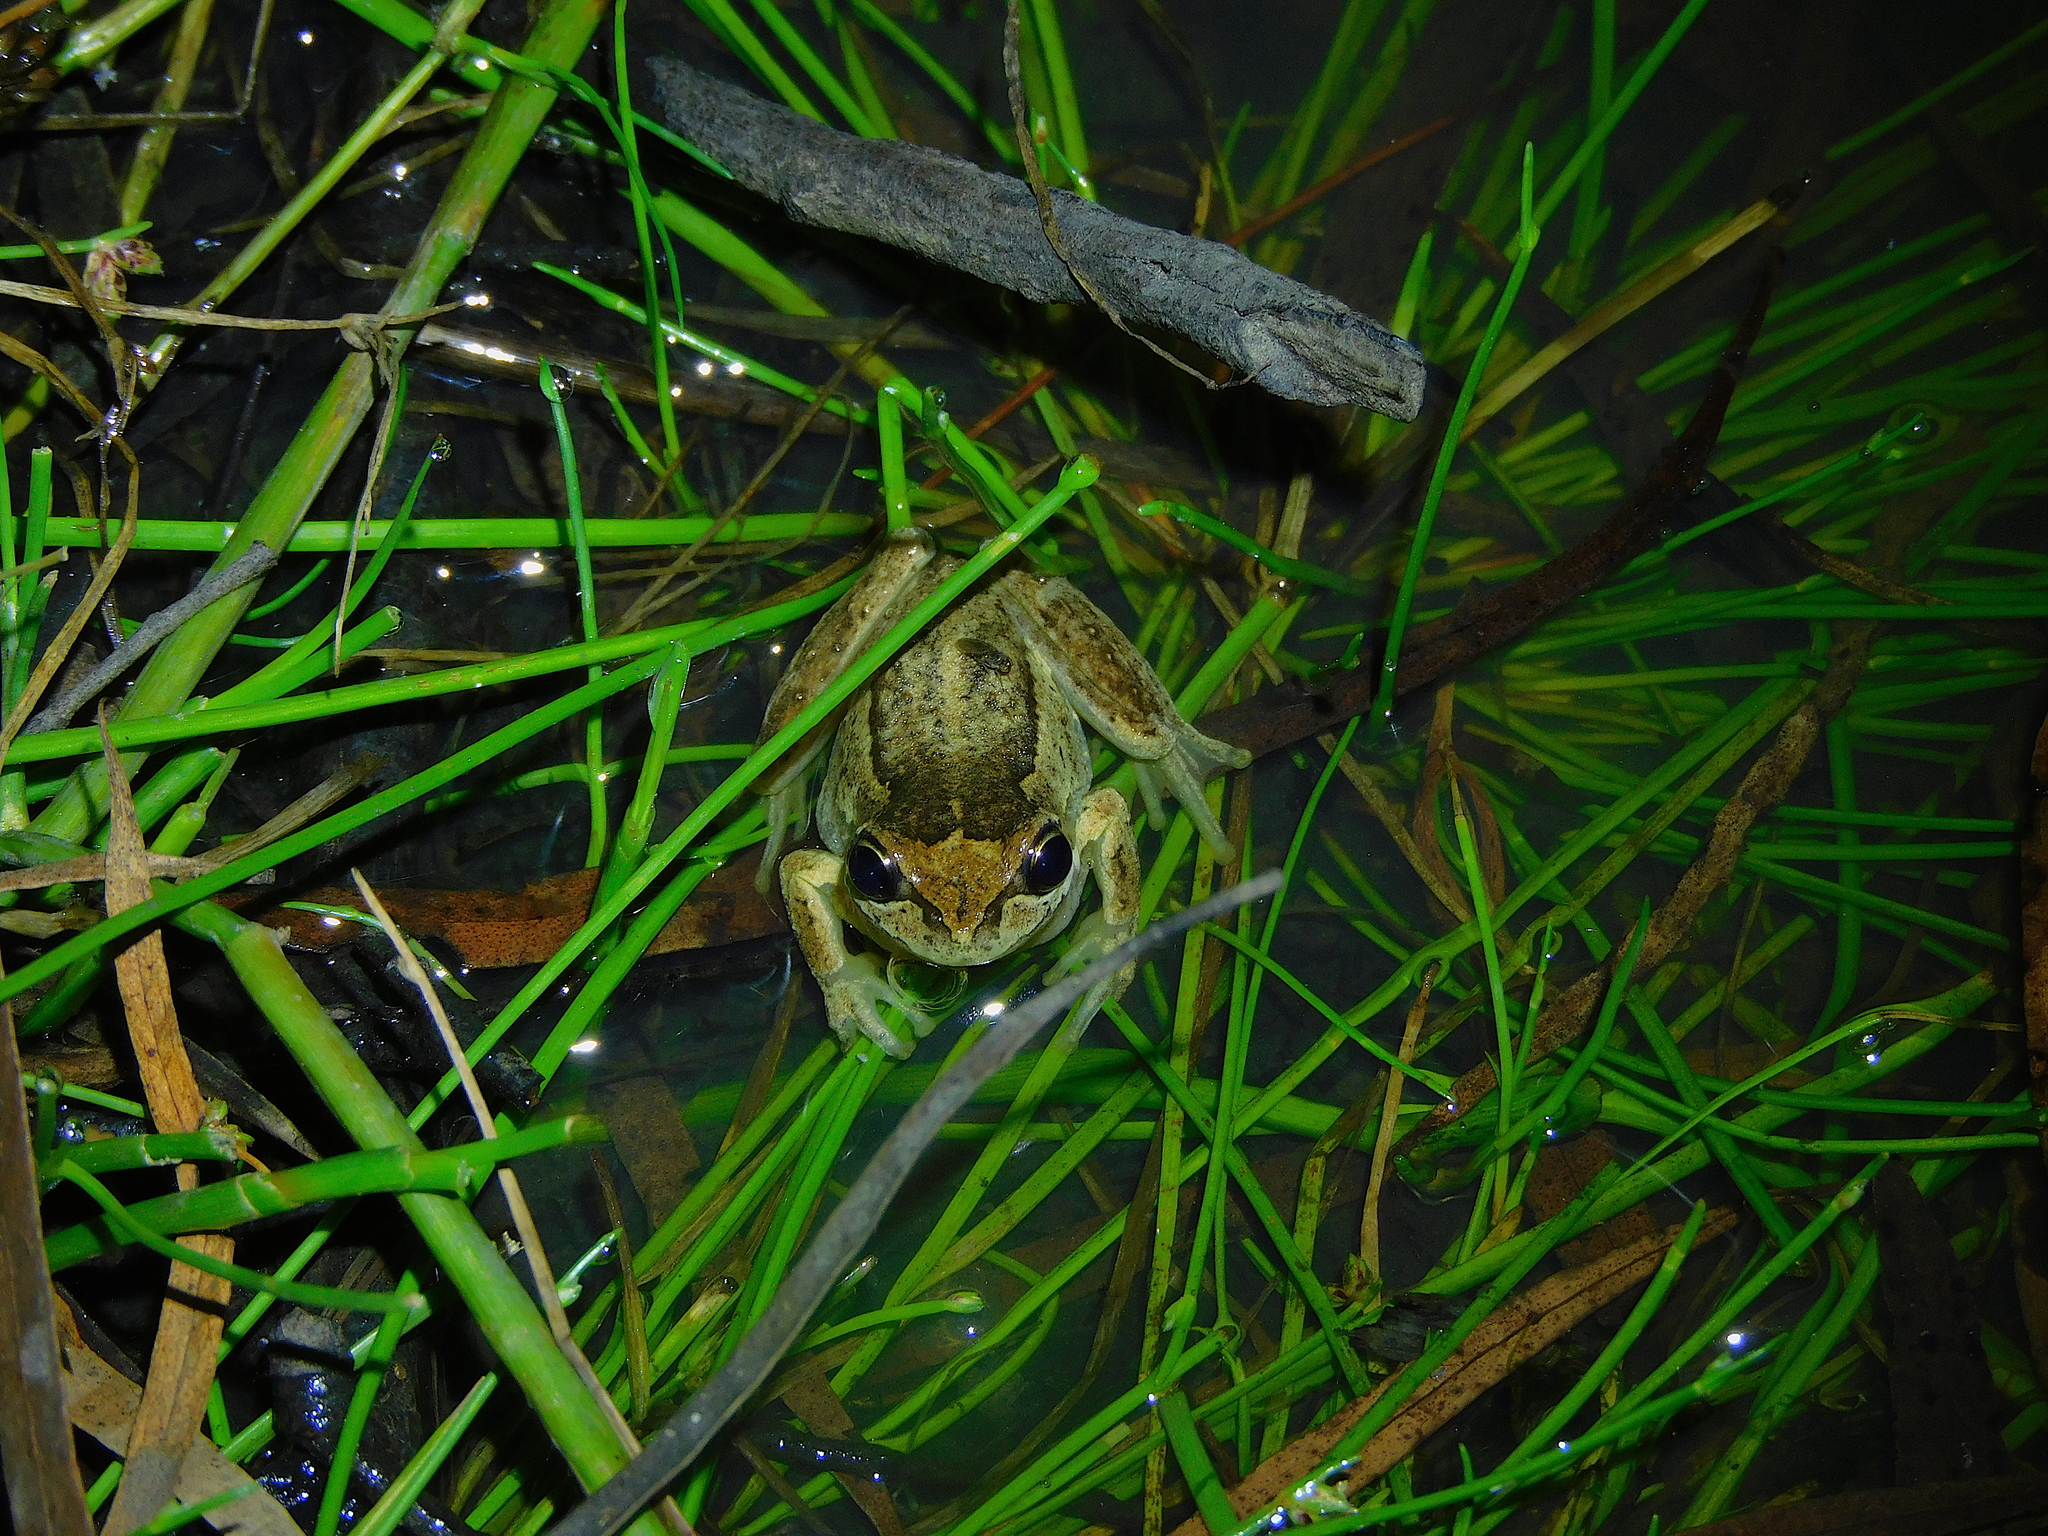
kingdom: Animalia
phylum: Chordata
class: Amphibia
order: Anura
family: Pelodryadidae
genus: Litoria
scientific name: Litoria ewingii
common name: Southern brown tree frog
